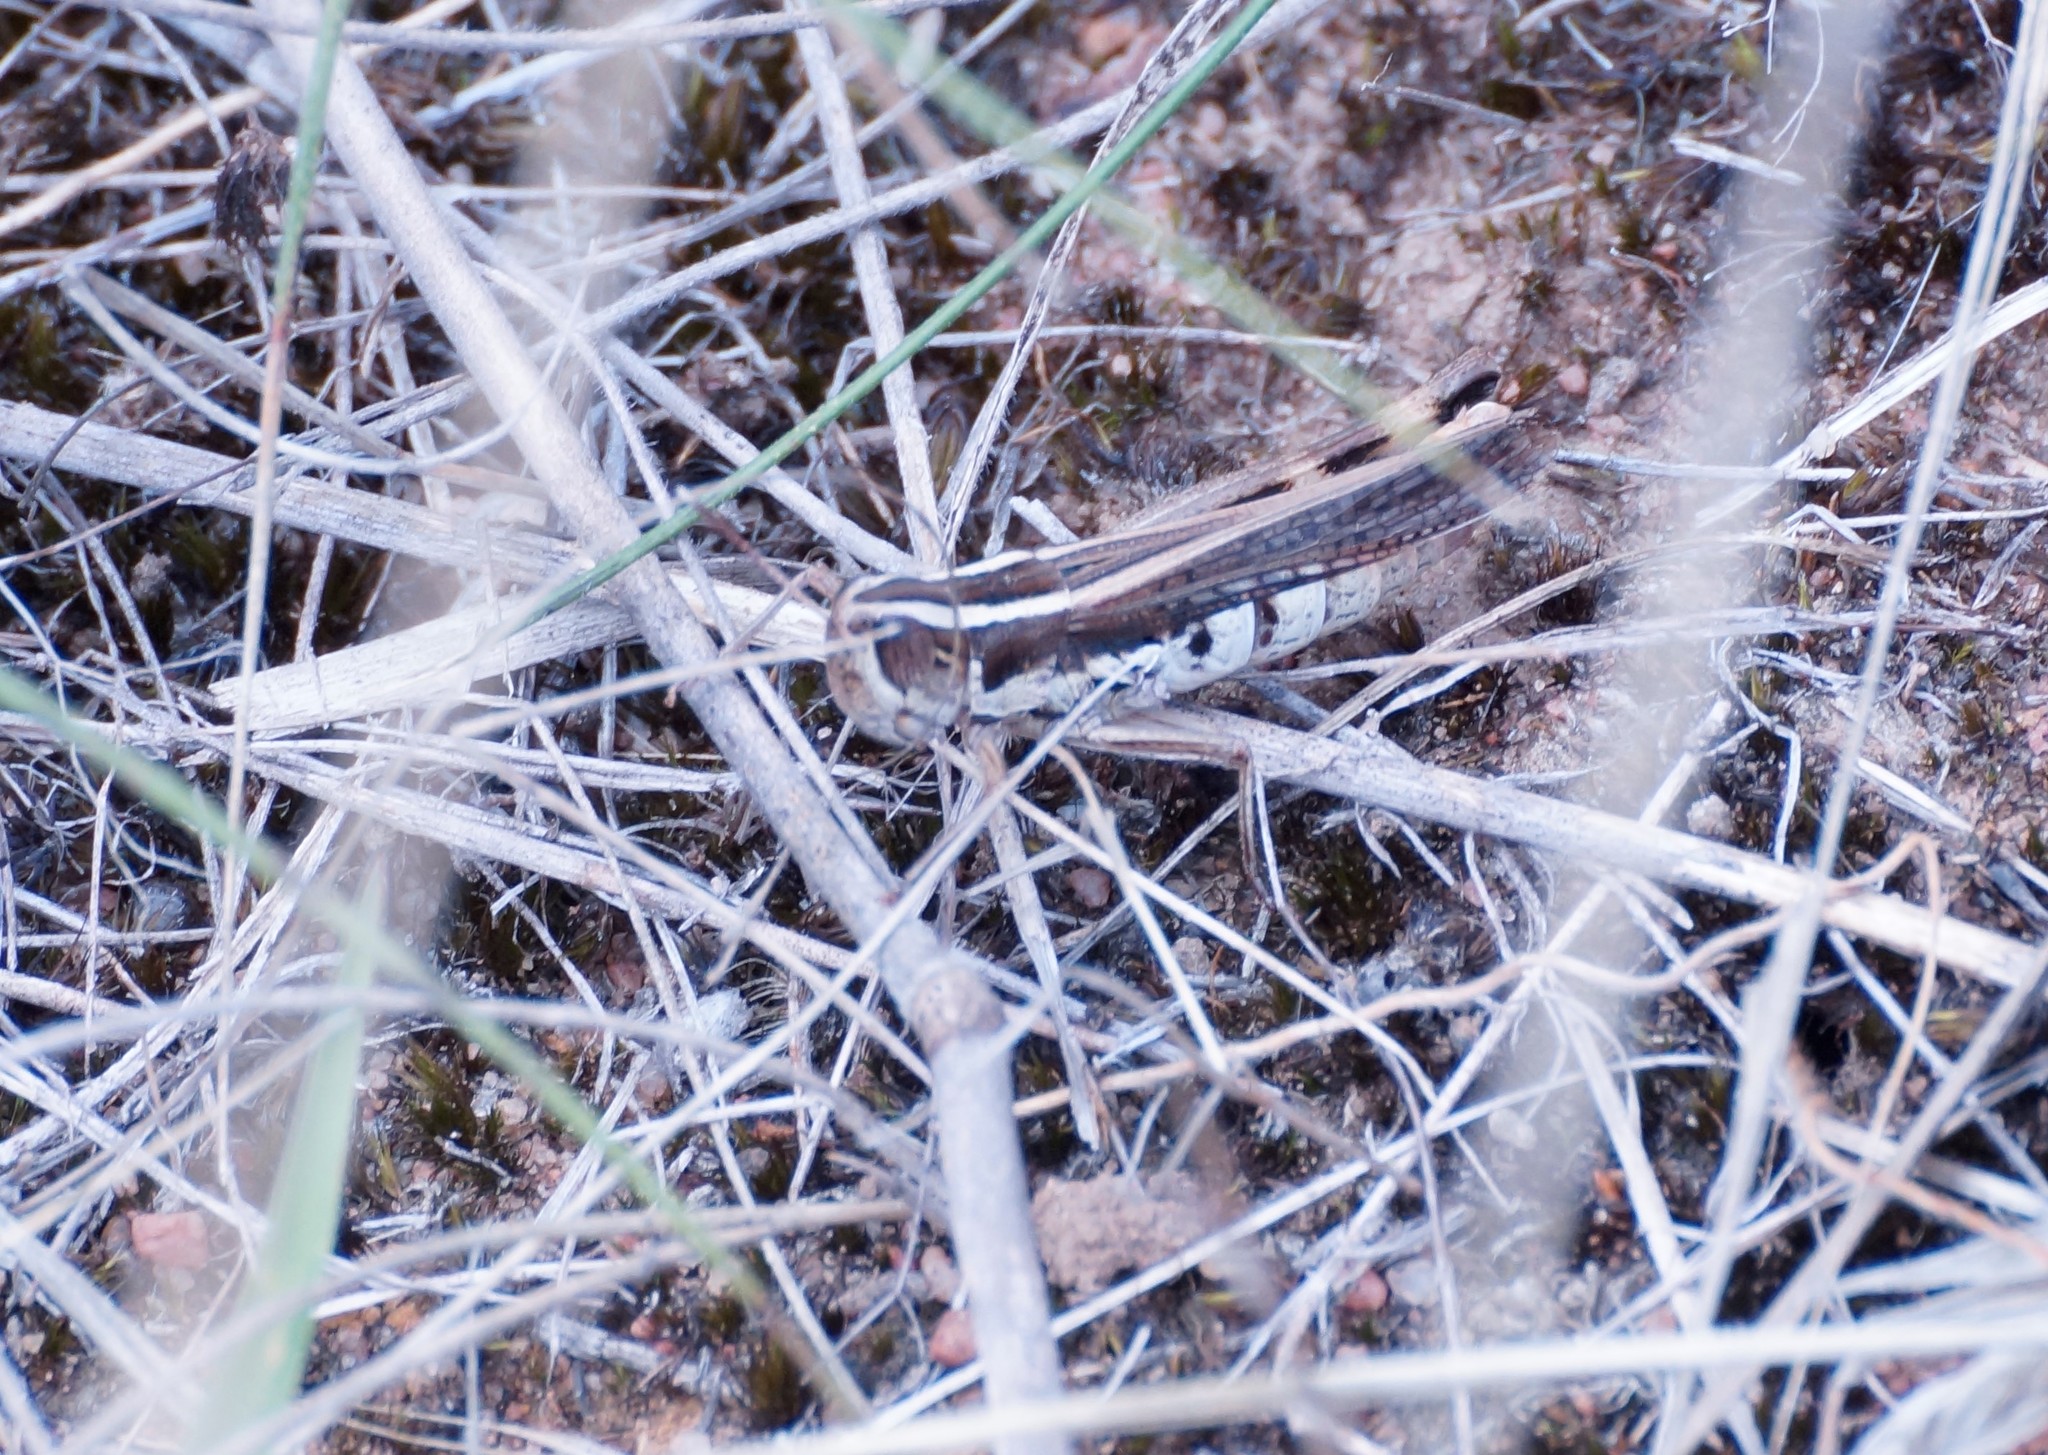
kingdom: Animalia
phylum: Arthropoda
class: Insecta
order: Orthoptera
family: Acrididae
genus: Macrotona
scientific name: Macrotona securiformis
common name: Inland macrotona
